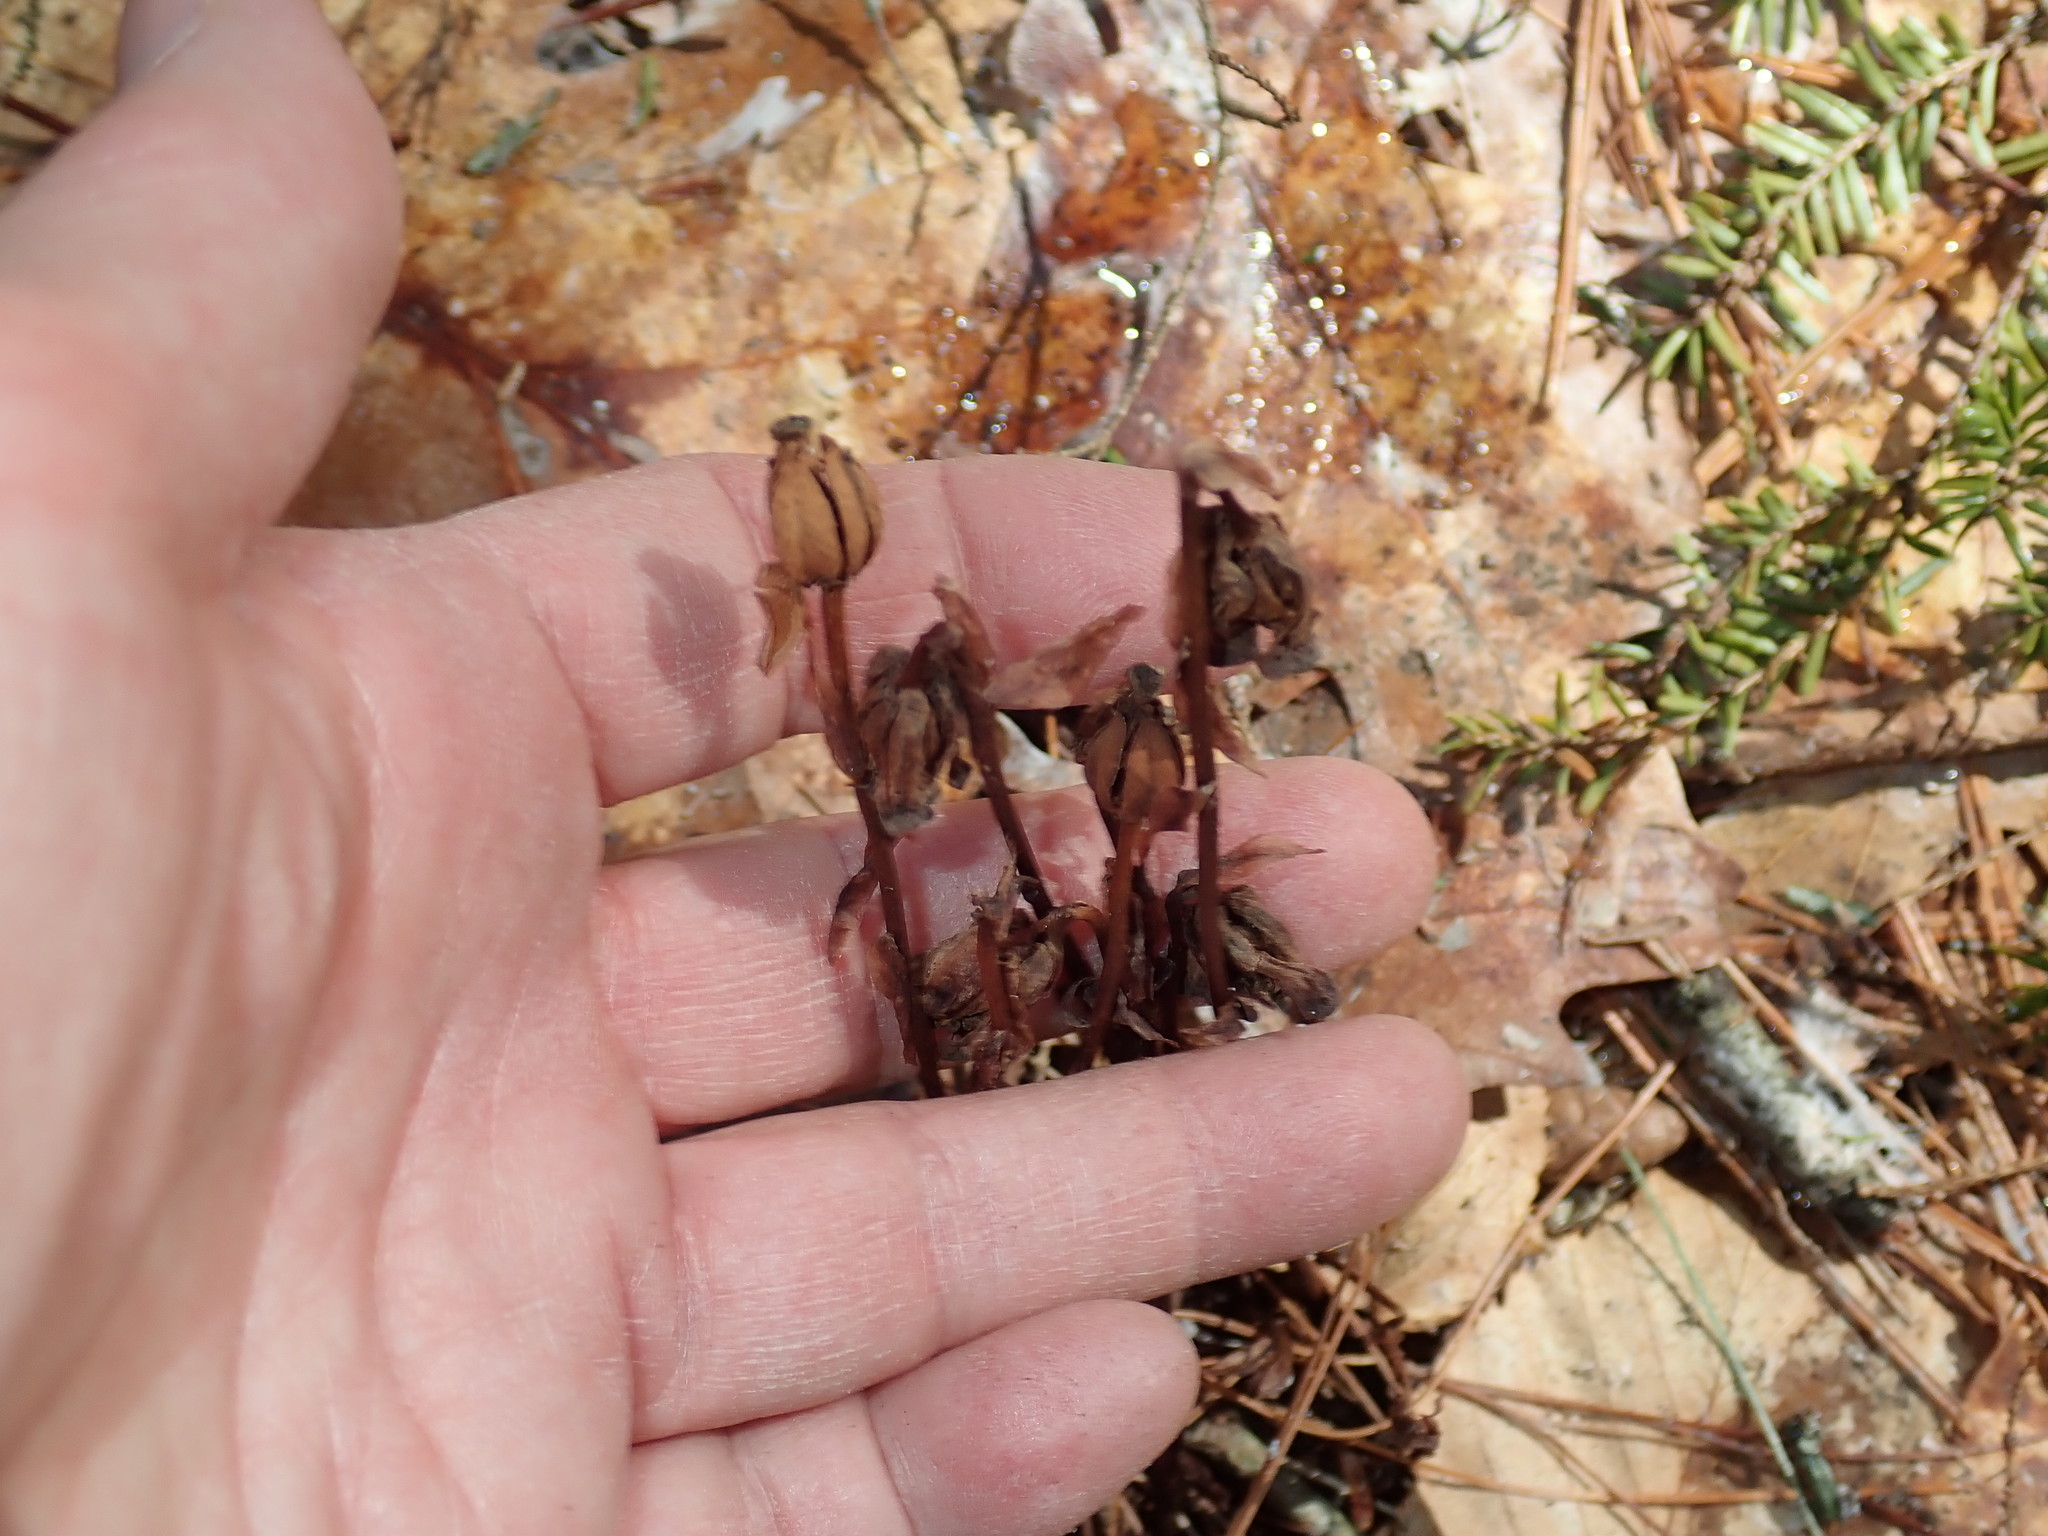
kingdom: Plantae
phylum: Tracheophyta
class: Magnoliopsida
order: Ericales
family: Ericaceae
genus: Monotropa
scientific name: Monotropa uniflora
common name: Convulsion root
